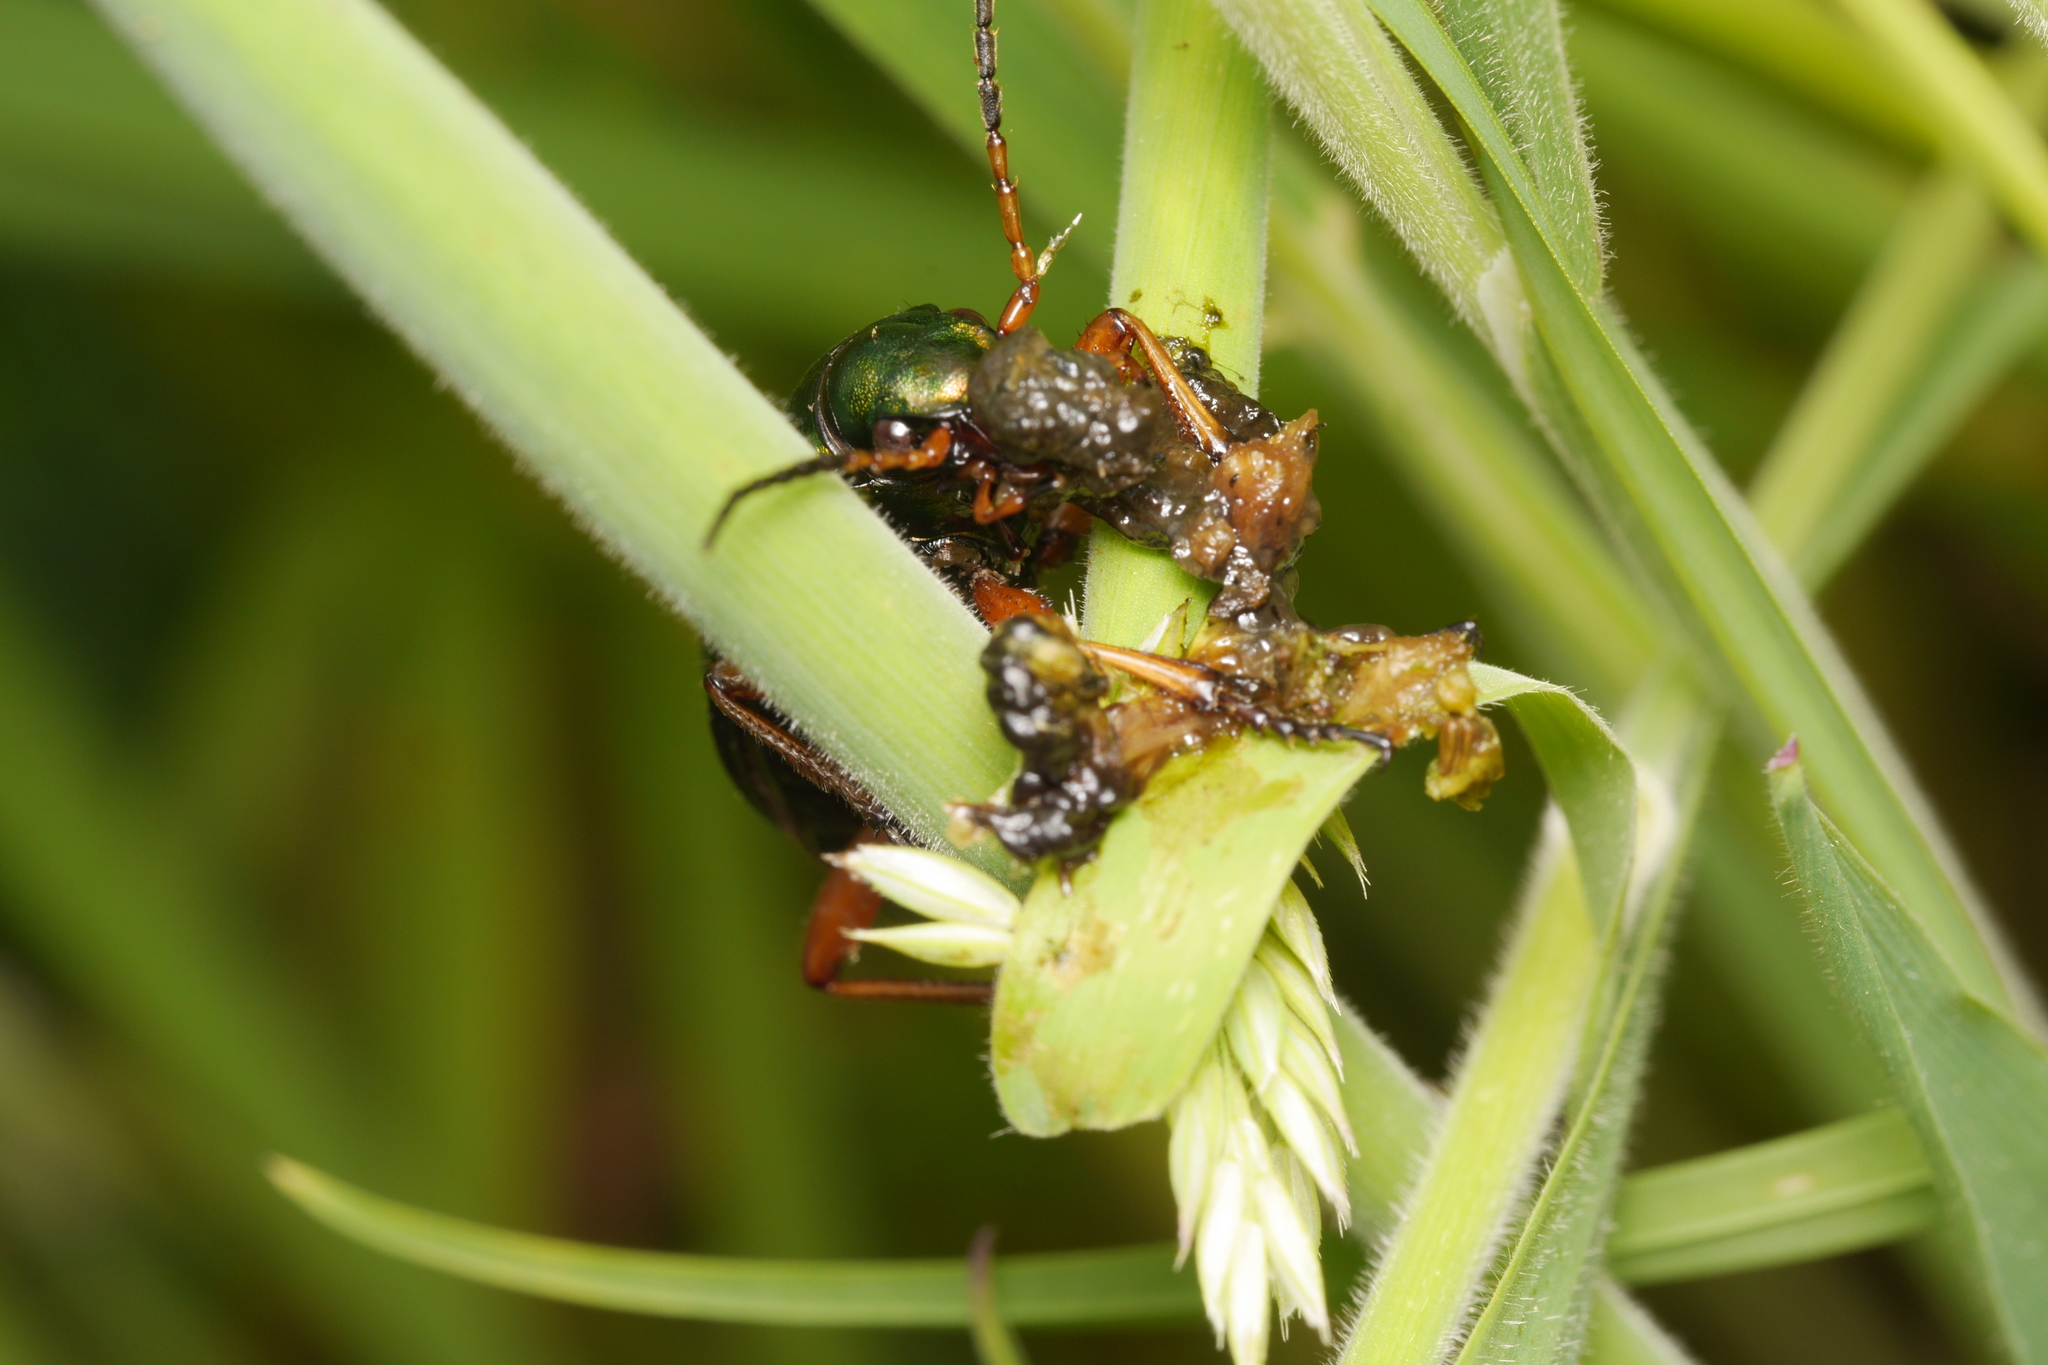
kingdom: Animalia
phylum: Arthropoda
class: Insecta
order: Coleoptera
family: Carabidae
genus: Carabus
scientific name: Carabus auratus
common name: Golden ground beetle
